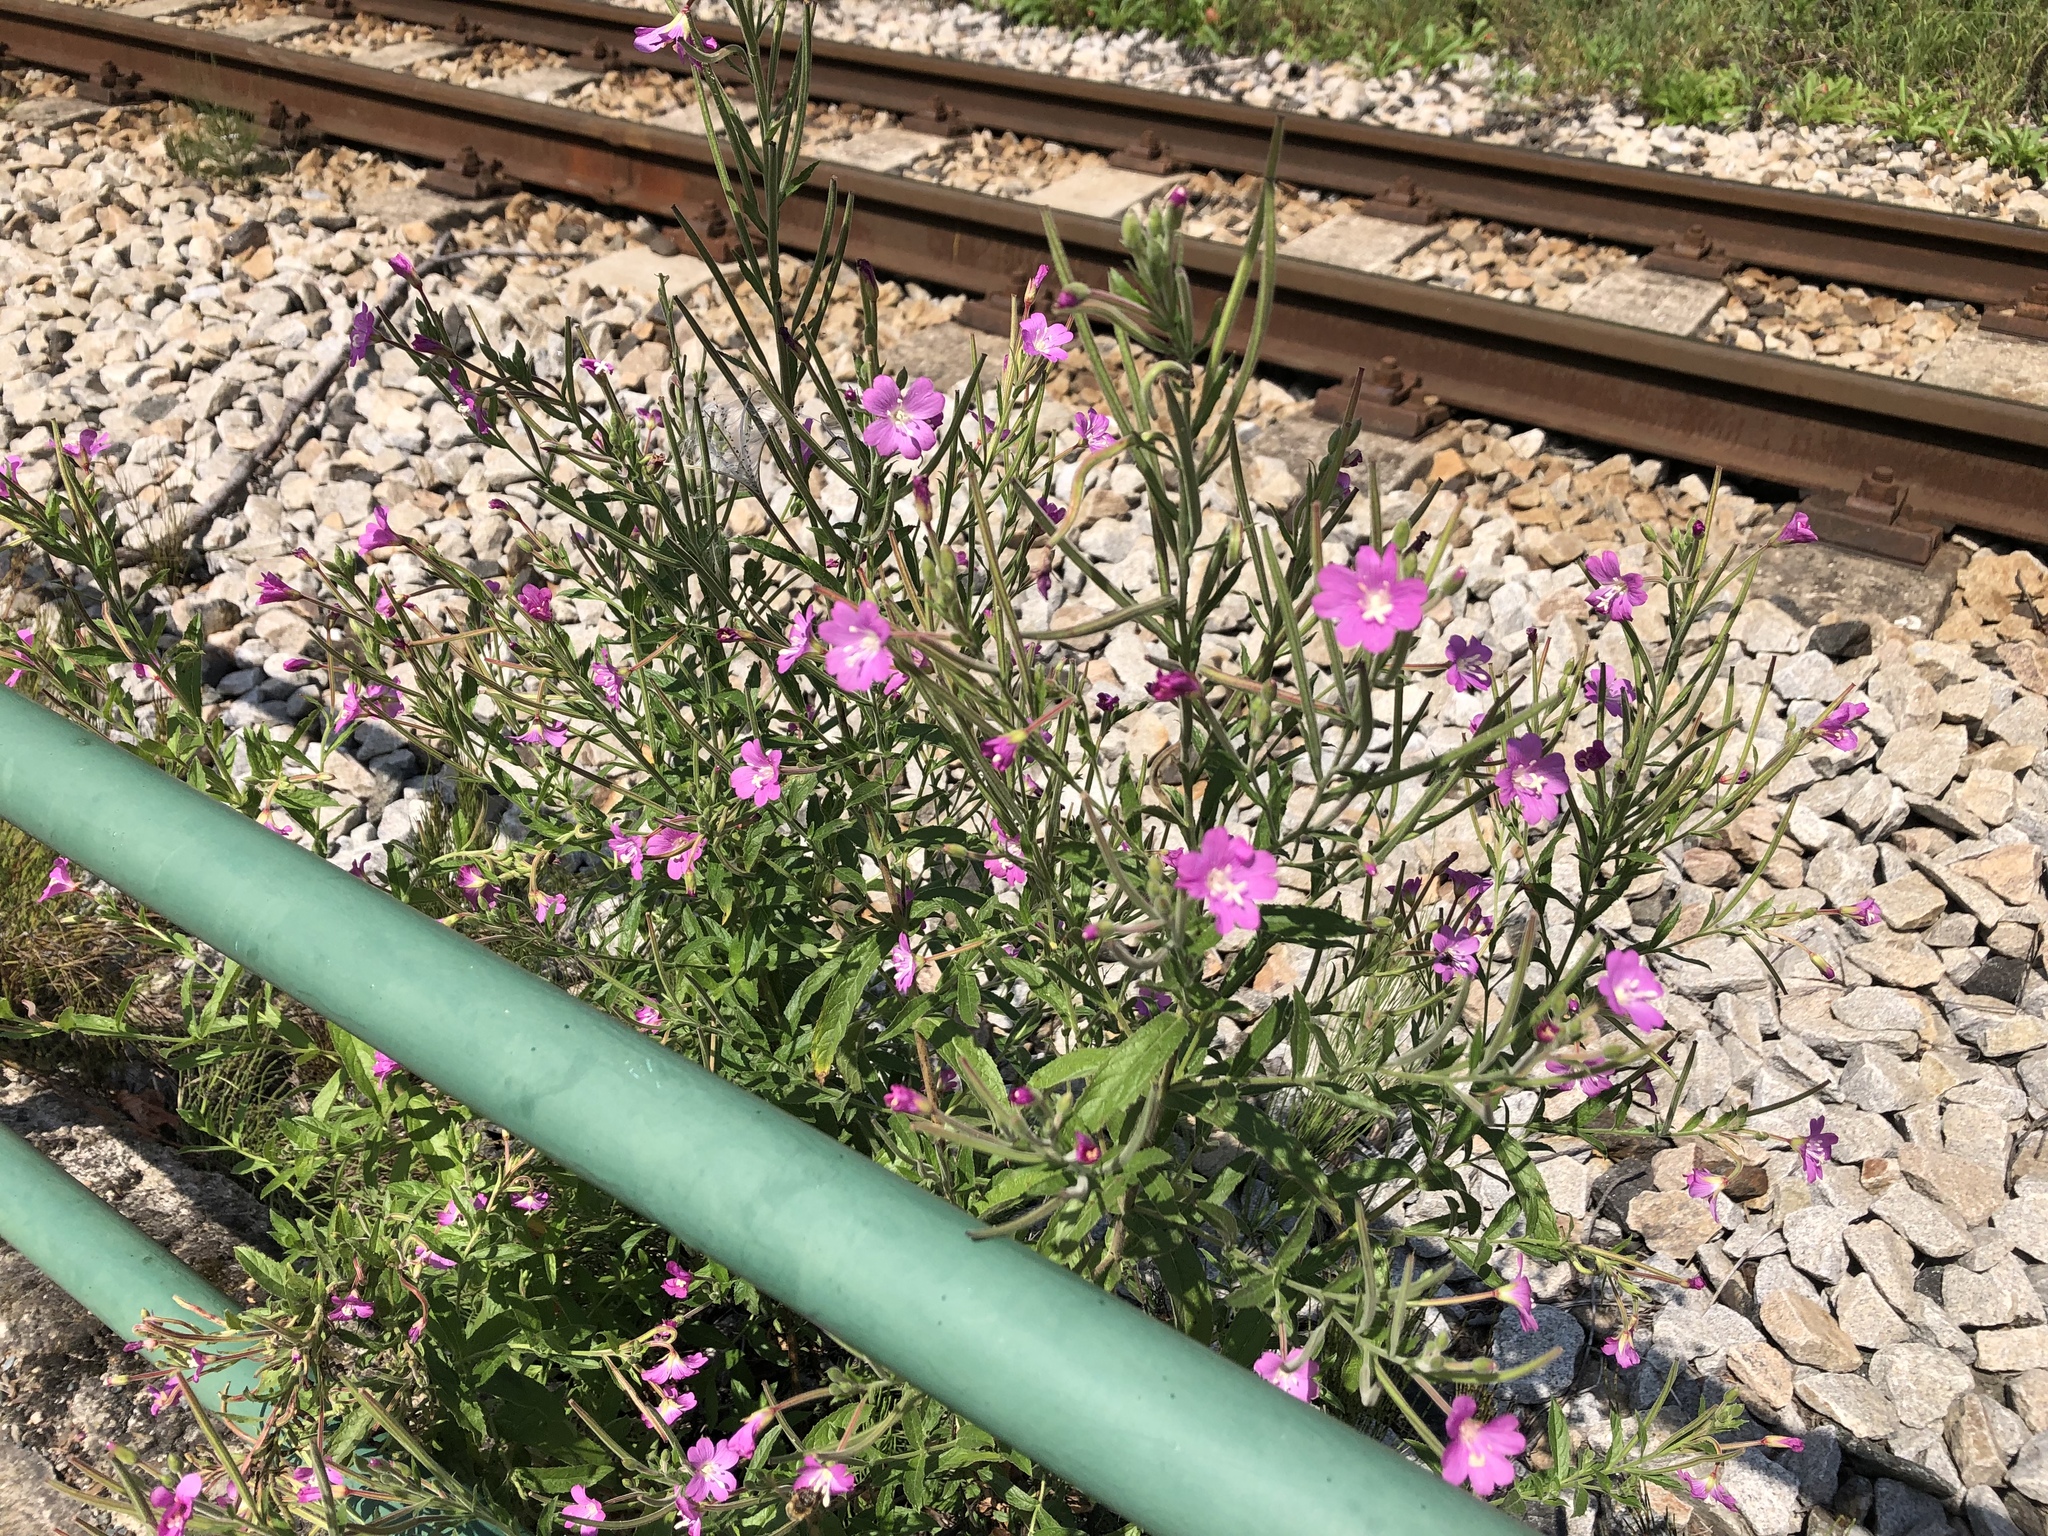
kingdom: Plantae
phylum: Tracheophyta
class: Magnoliopsida
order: Myrtales
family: Onagraceae
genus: Epilobium
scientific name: Epilobium hirsutum
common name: Great willowherb
